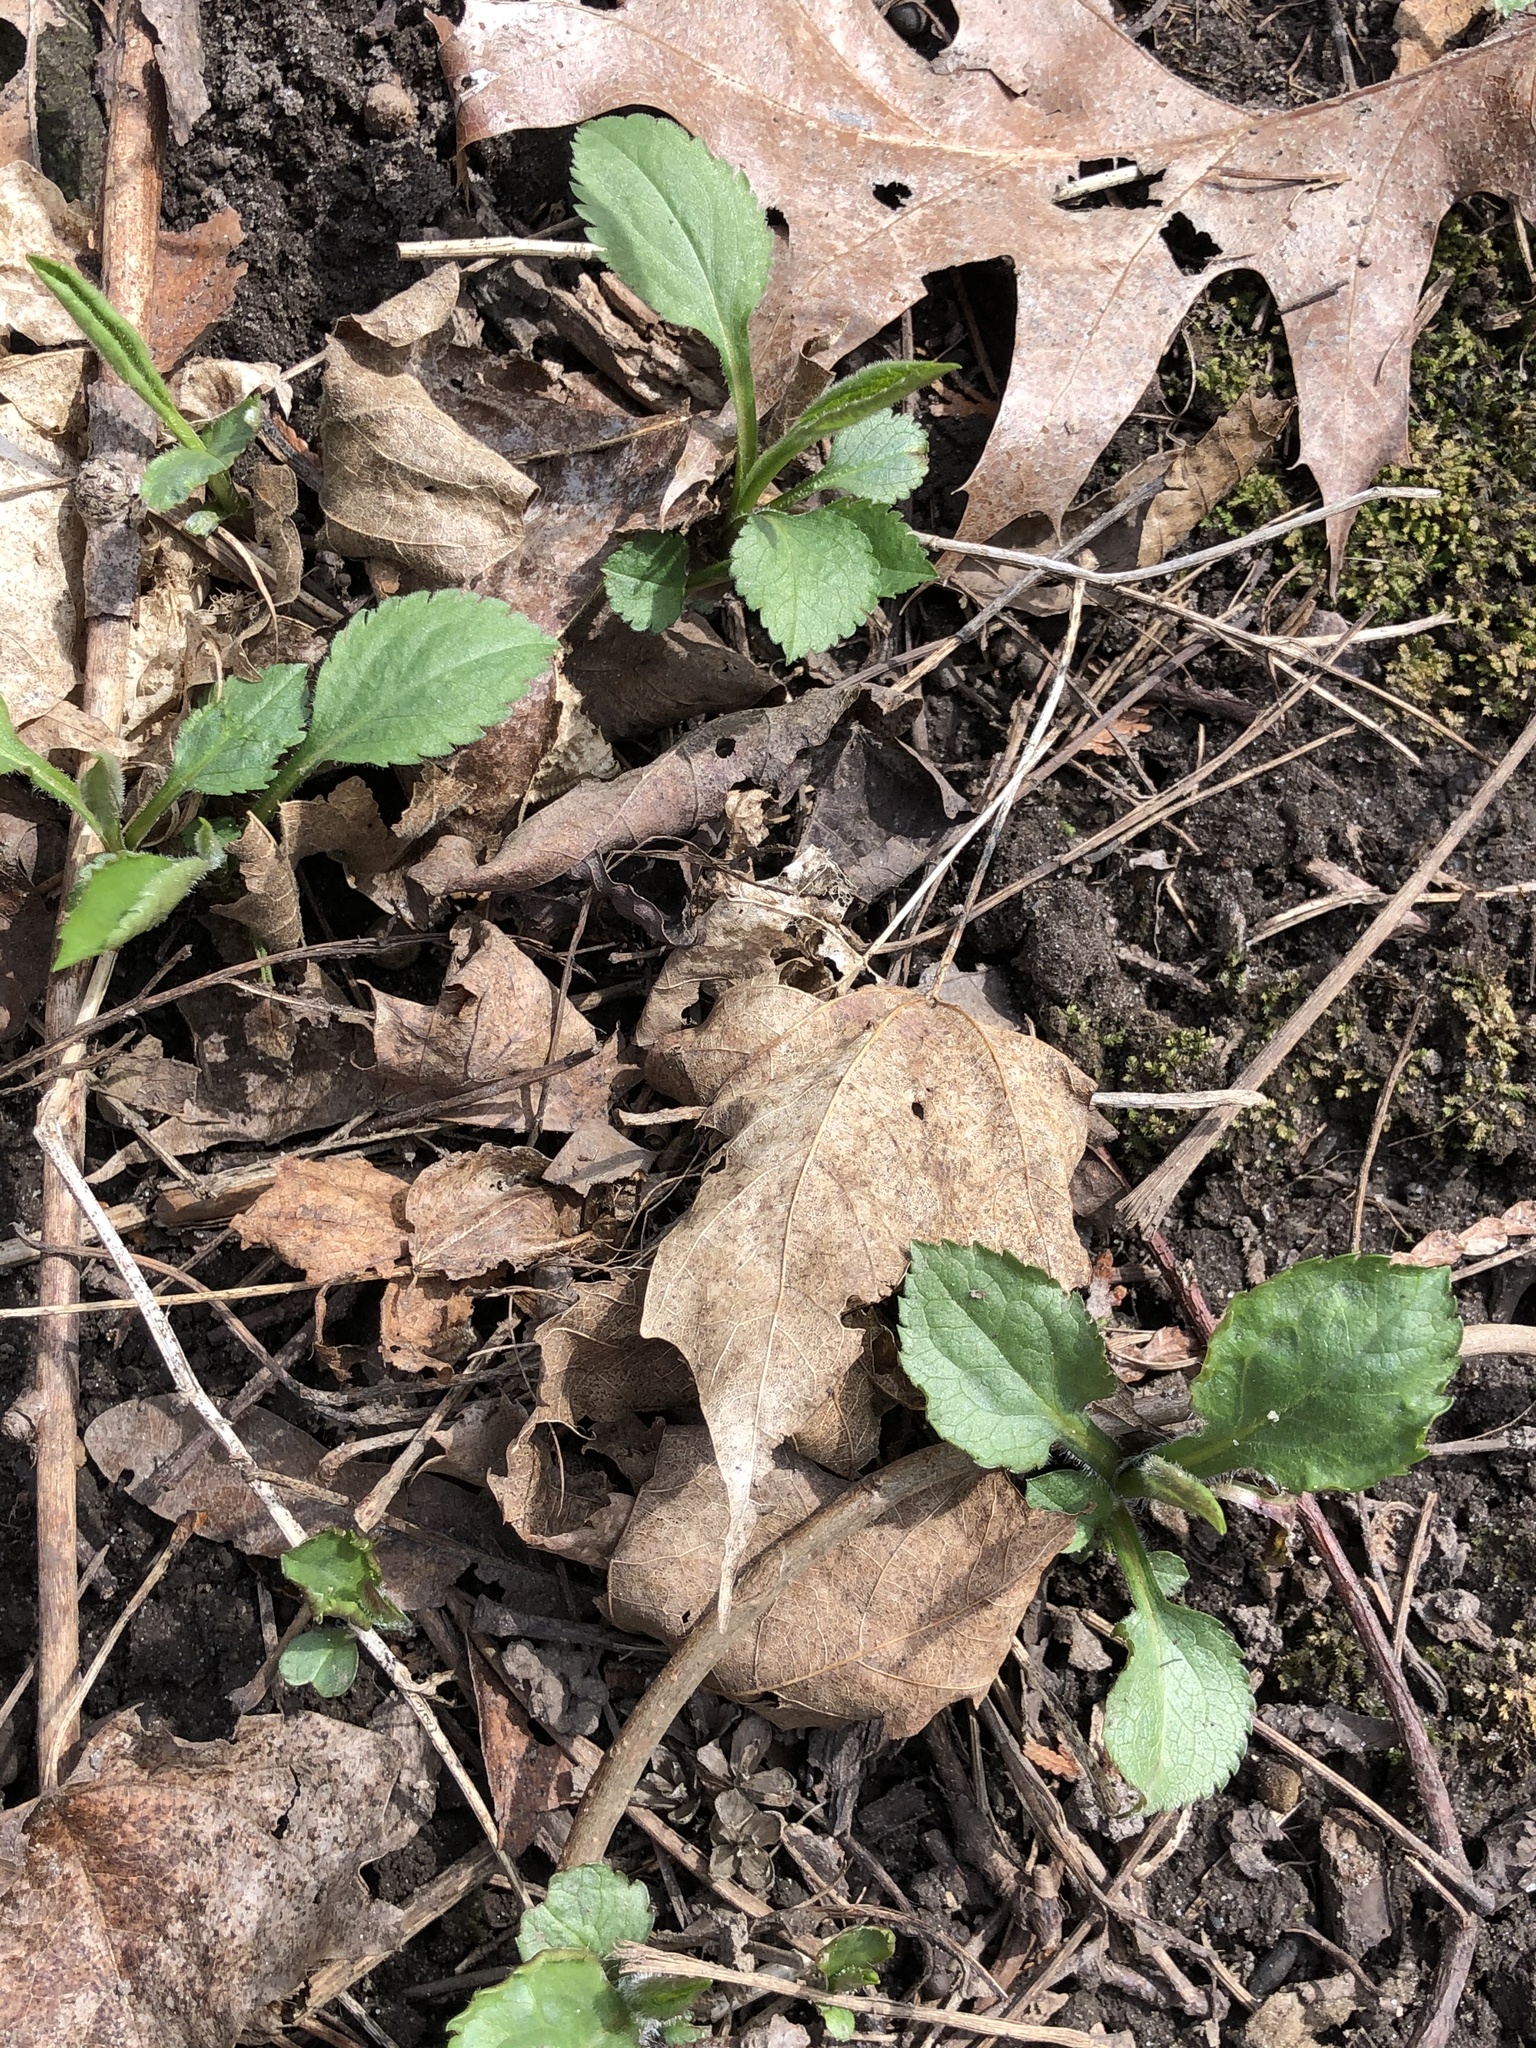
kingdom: Plantae
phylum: Tracheophyta
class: Magnoliopsida
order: Asterales
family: Asteraceae
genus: Solidago
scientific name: Solidago flexicaulis
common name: Zig-zag goldenrod
